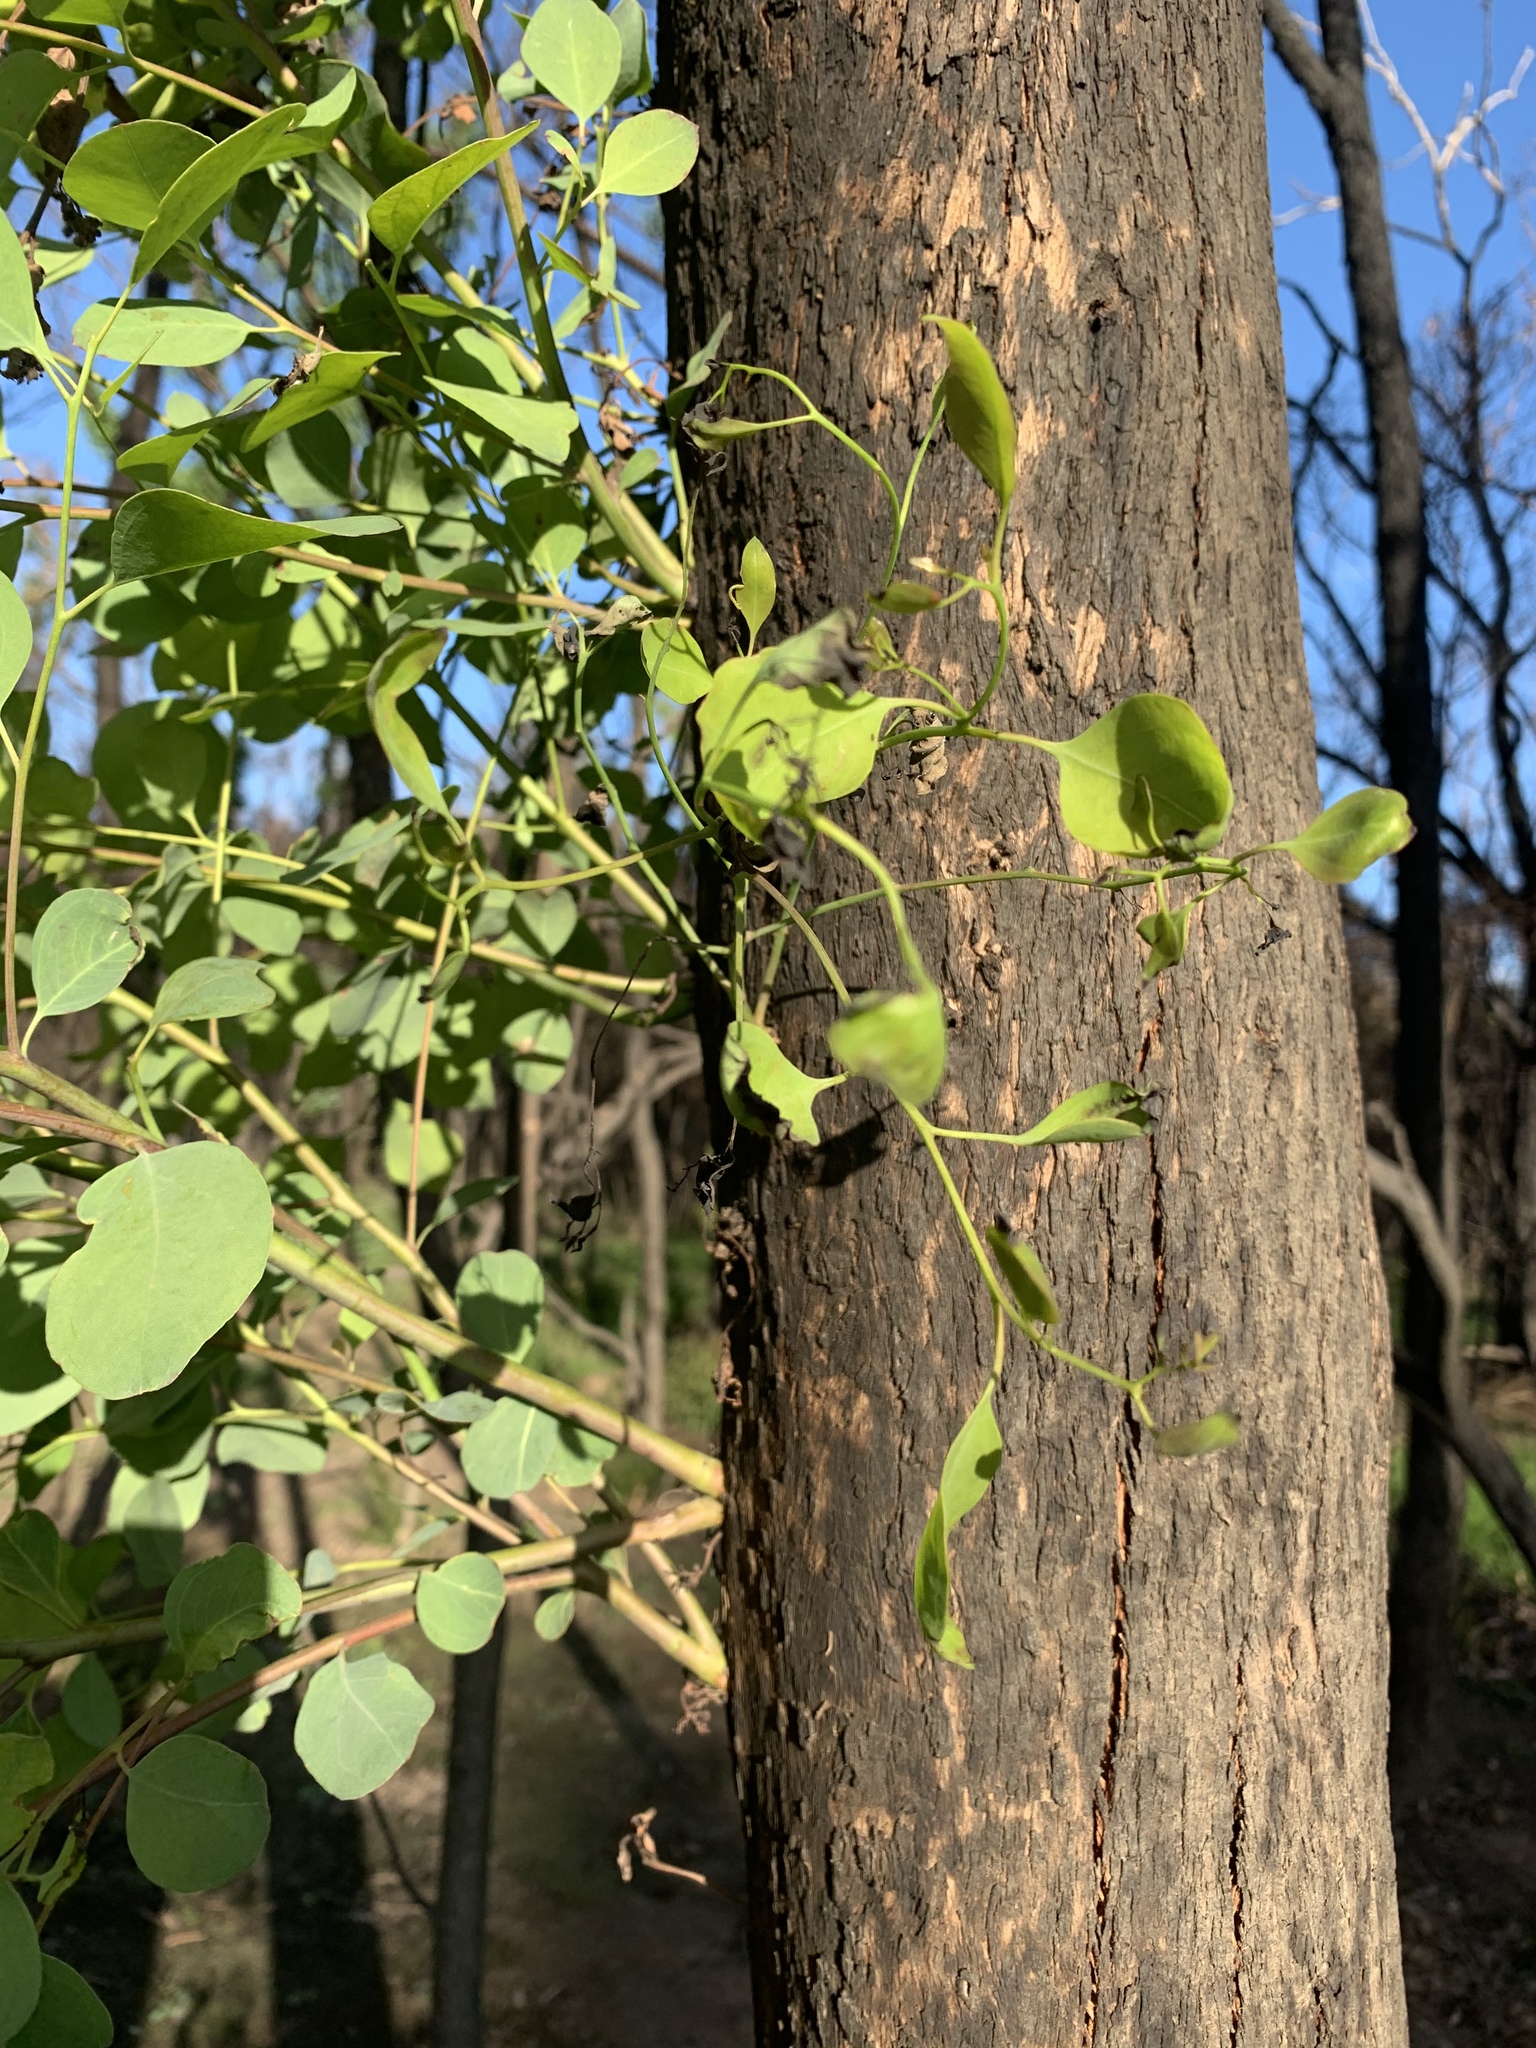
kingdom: Plantae
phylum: Tracheophyta
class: Magnoliopsida
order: Myrtales
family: Myrtaceae
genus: Eucalyptus
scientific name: Eucalyptus baueriana
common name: Round-leaf-box
